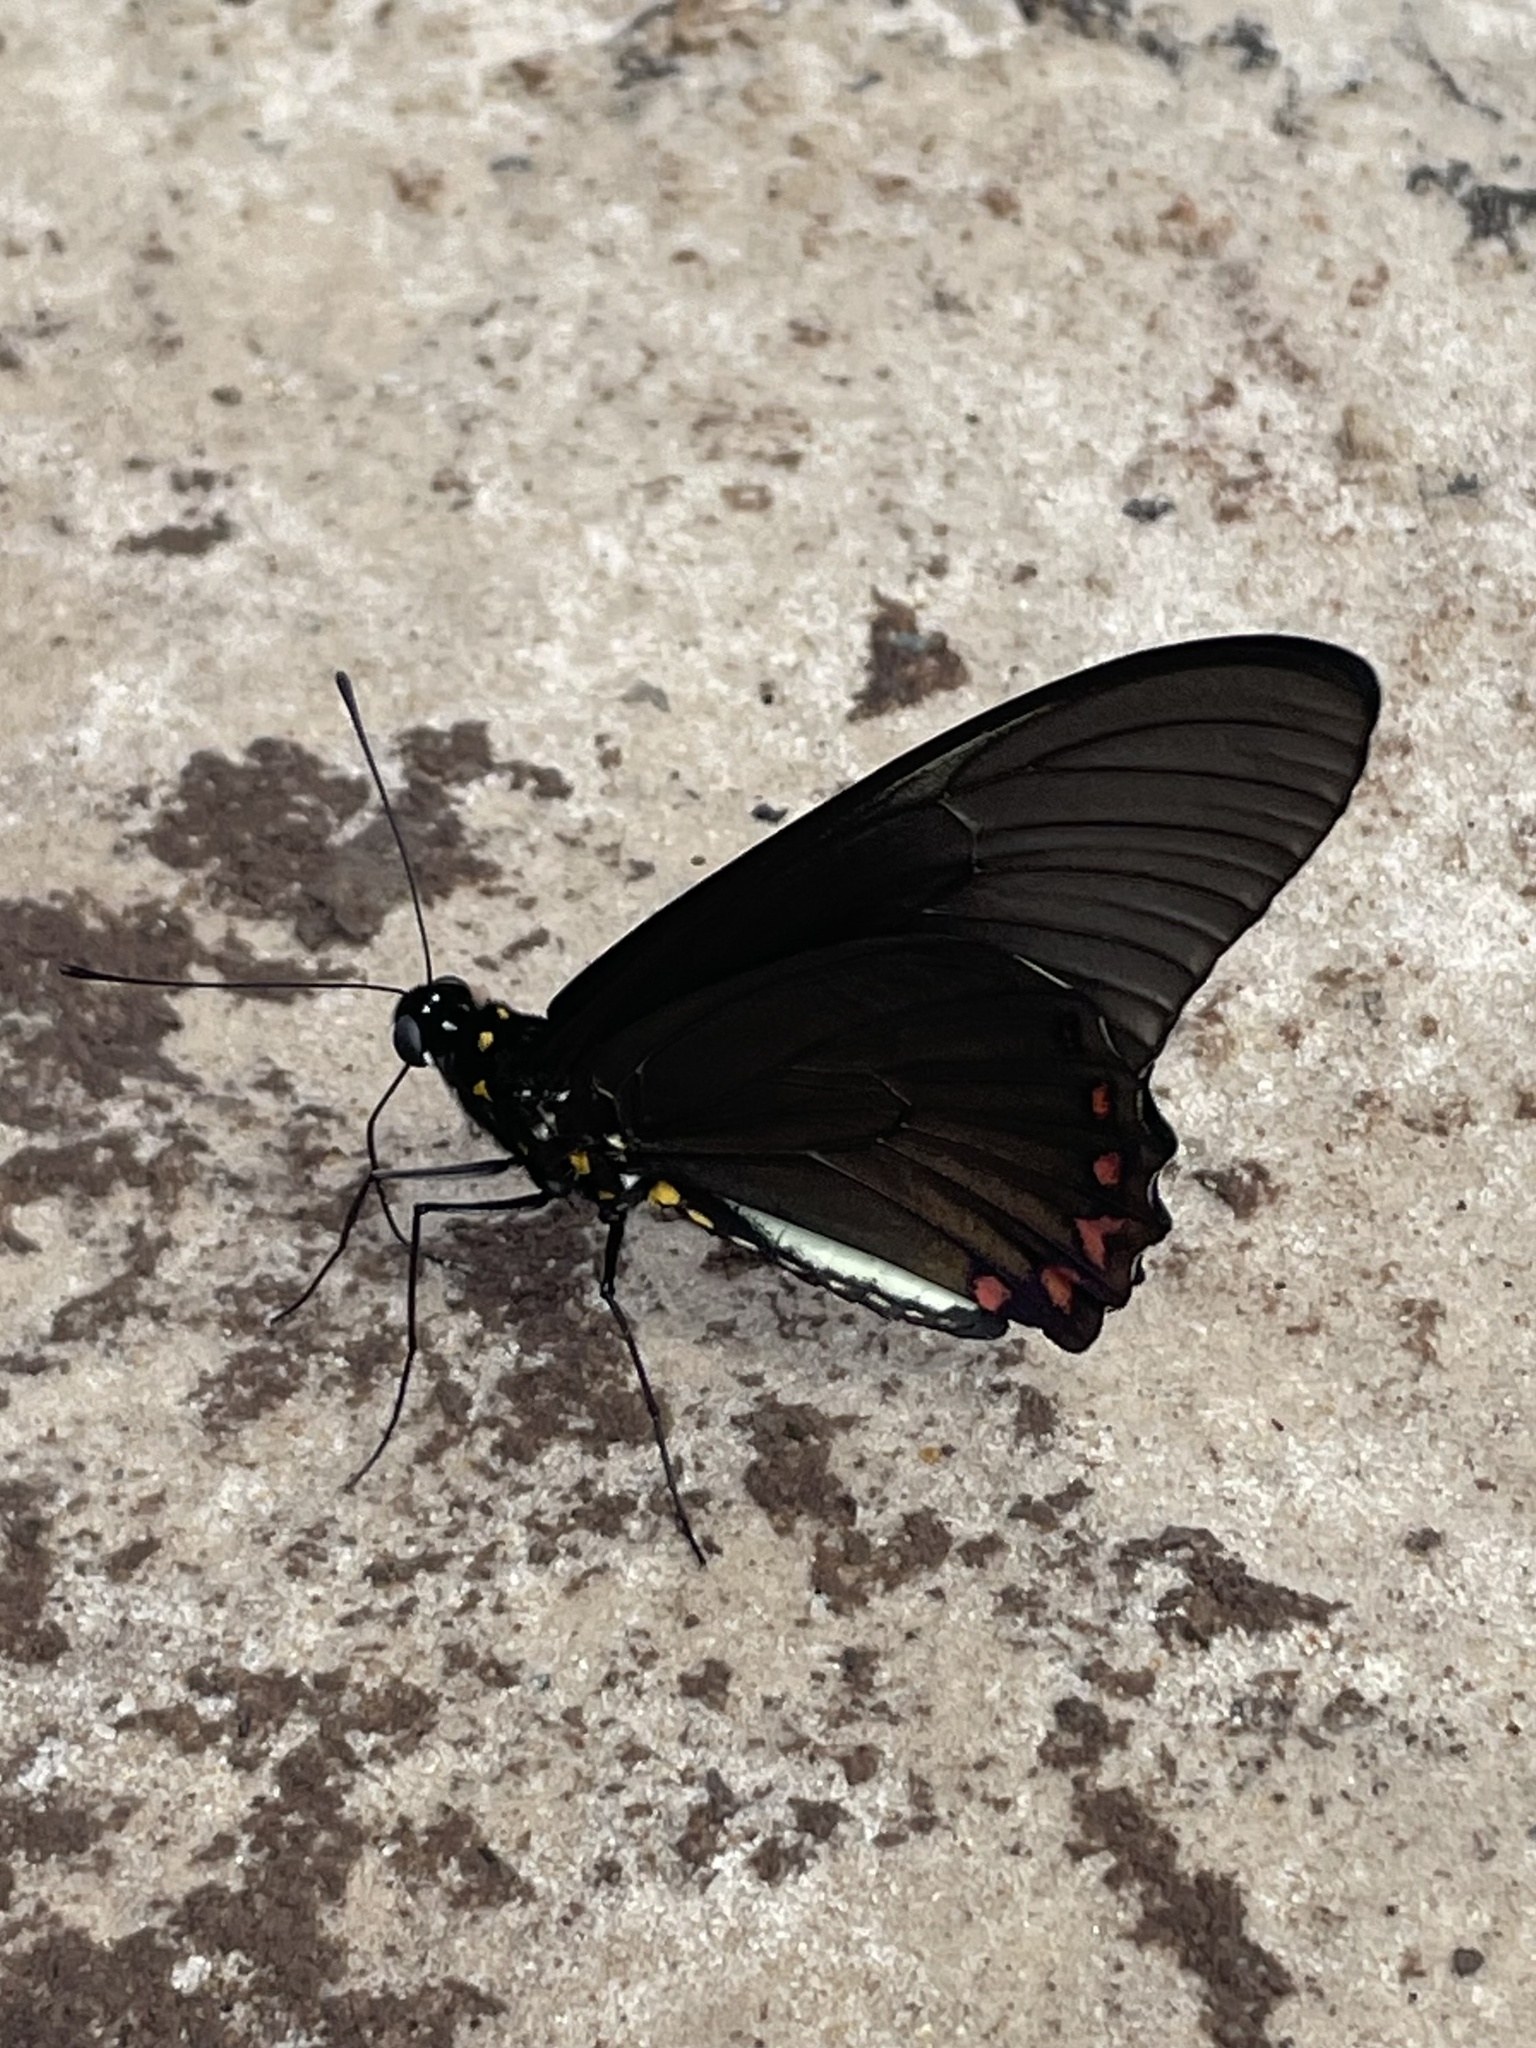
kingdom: Animalia
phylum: Arthropoda
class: Insecta
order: Lepidoptera
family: Papilionidae
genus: Battus
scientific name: Battus lycidas
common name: Cramer's swallowtail
